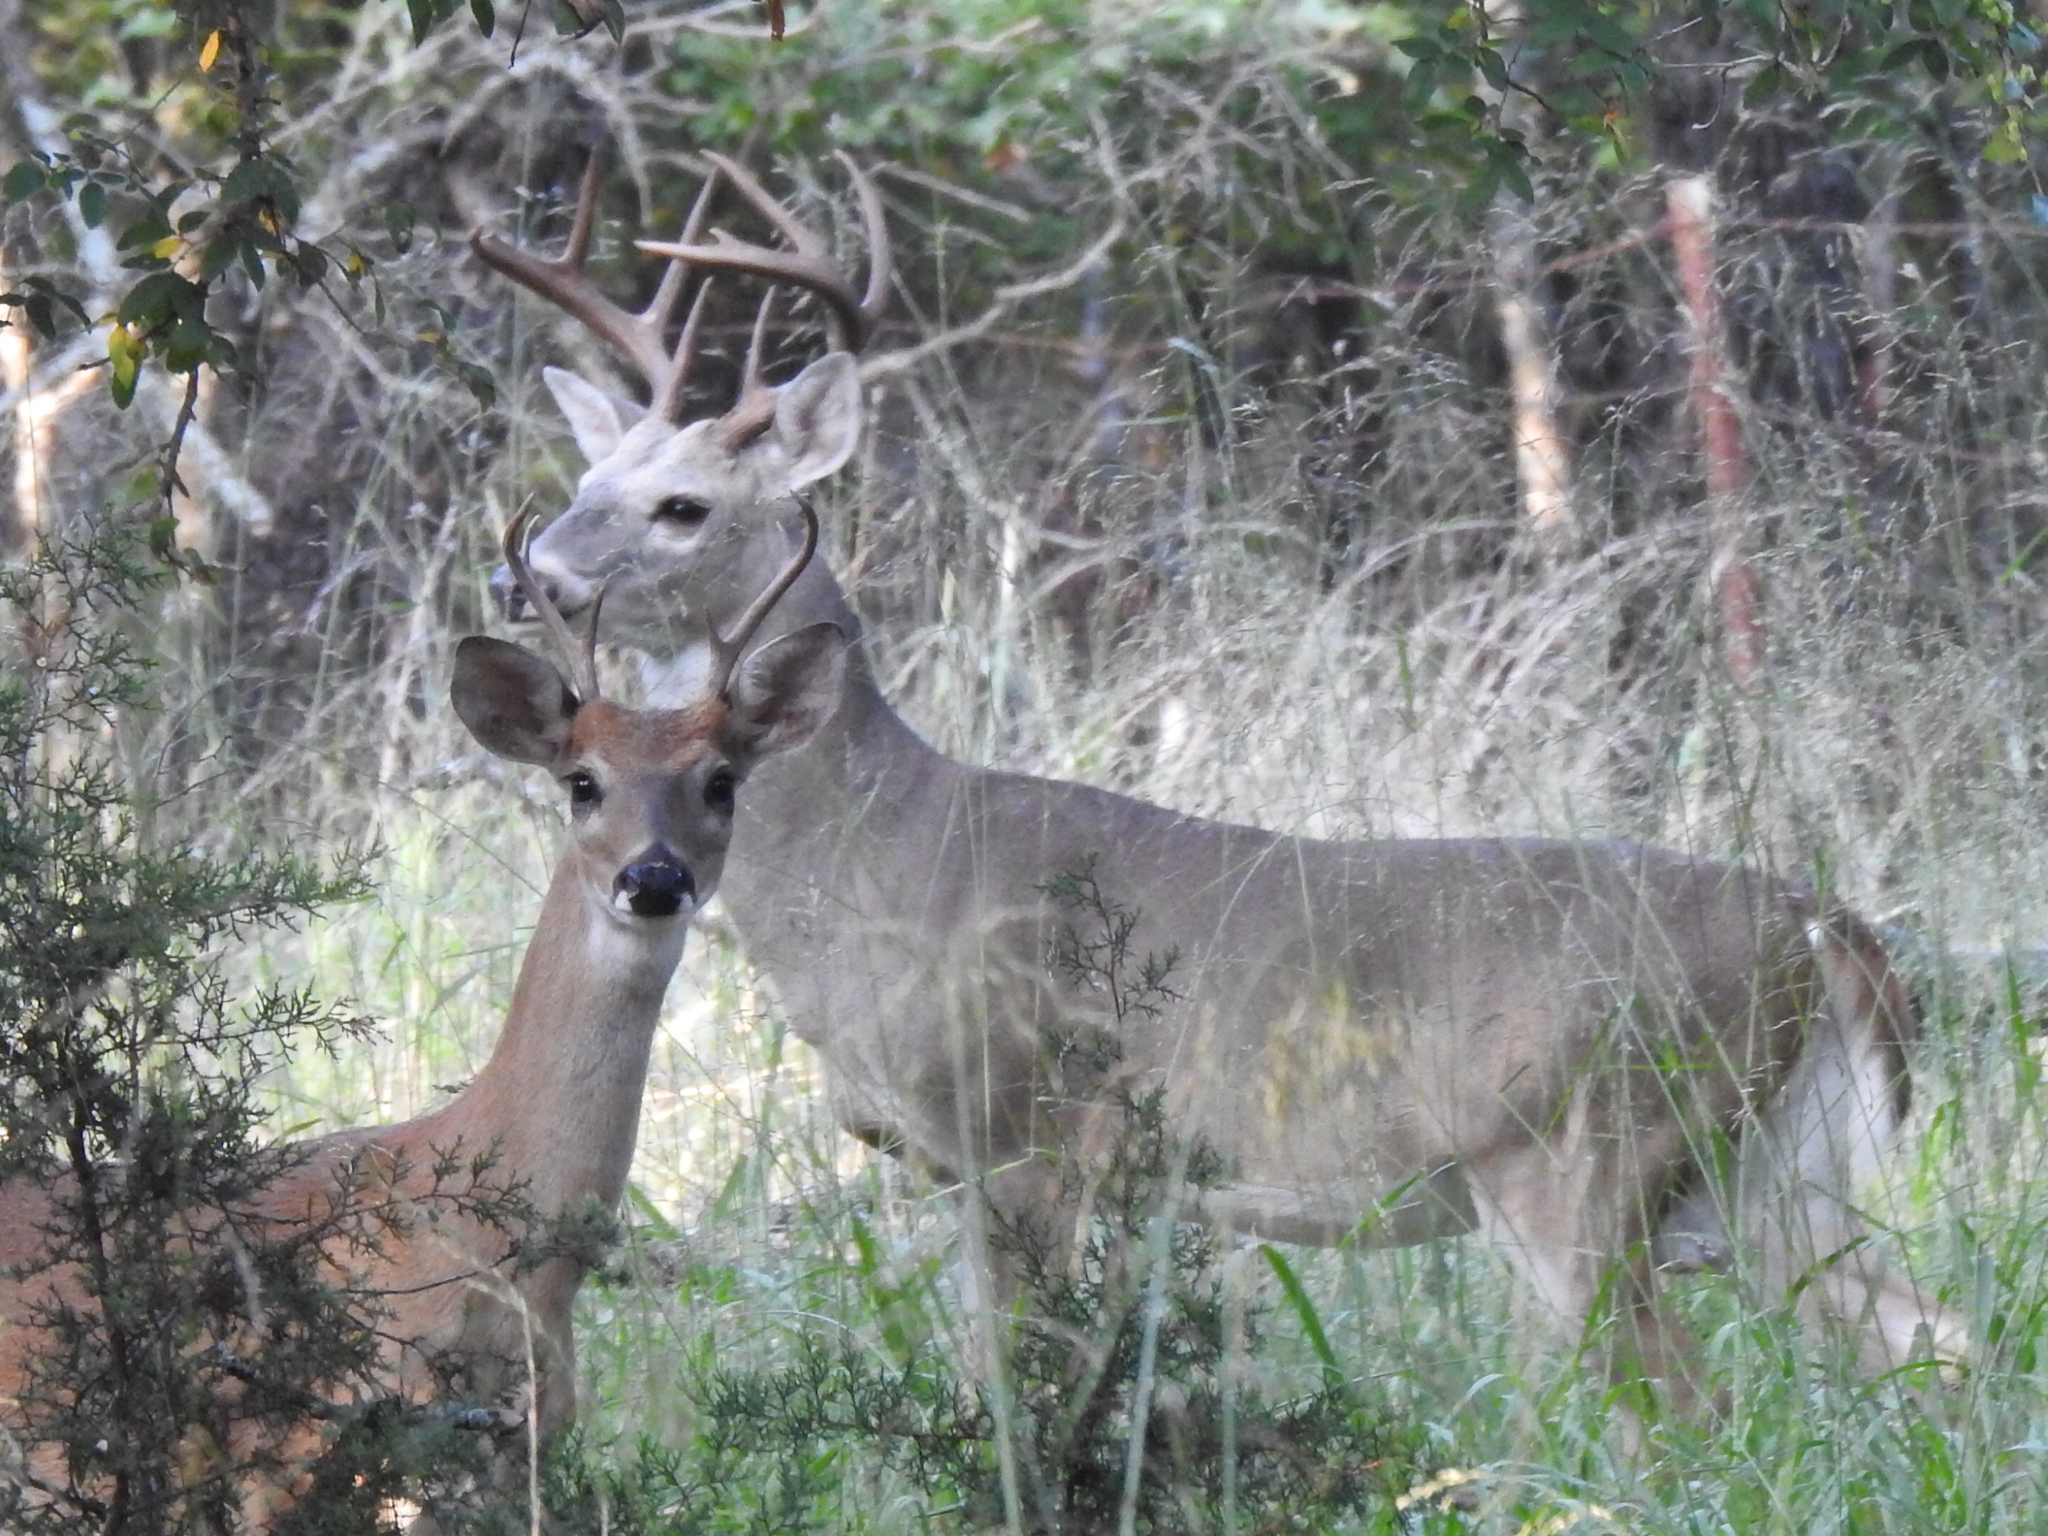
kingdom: Animalia
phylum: Chordata
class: Mammalia
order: Artiodactyla
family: Cervidae
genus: Odocoileus
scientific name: Odocoileus virginianus
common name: White-tailed deer
